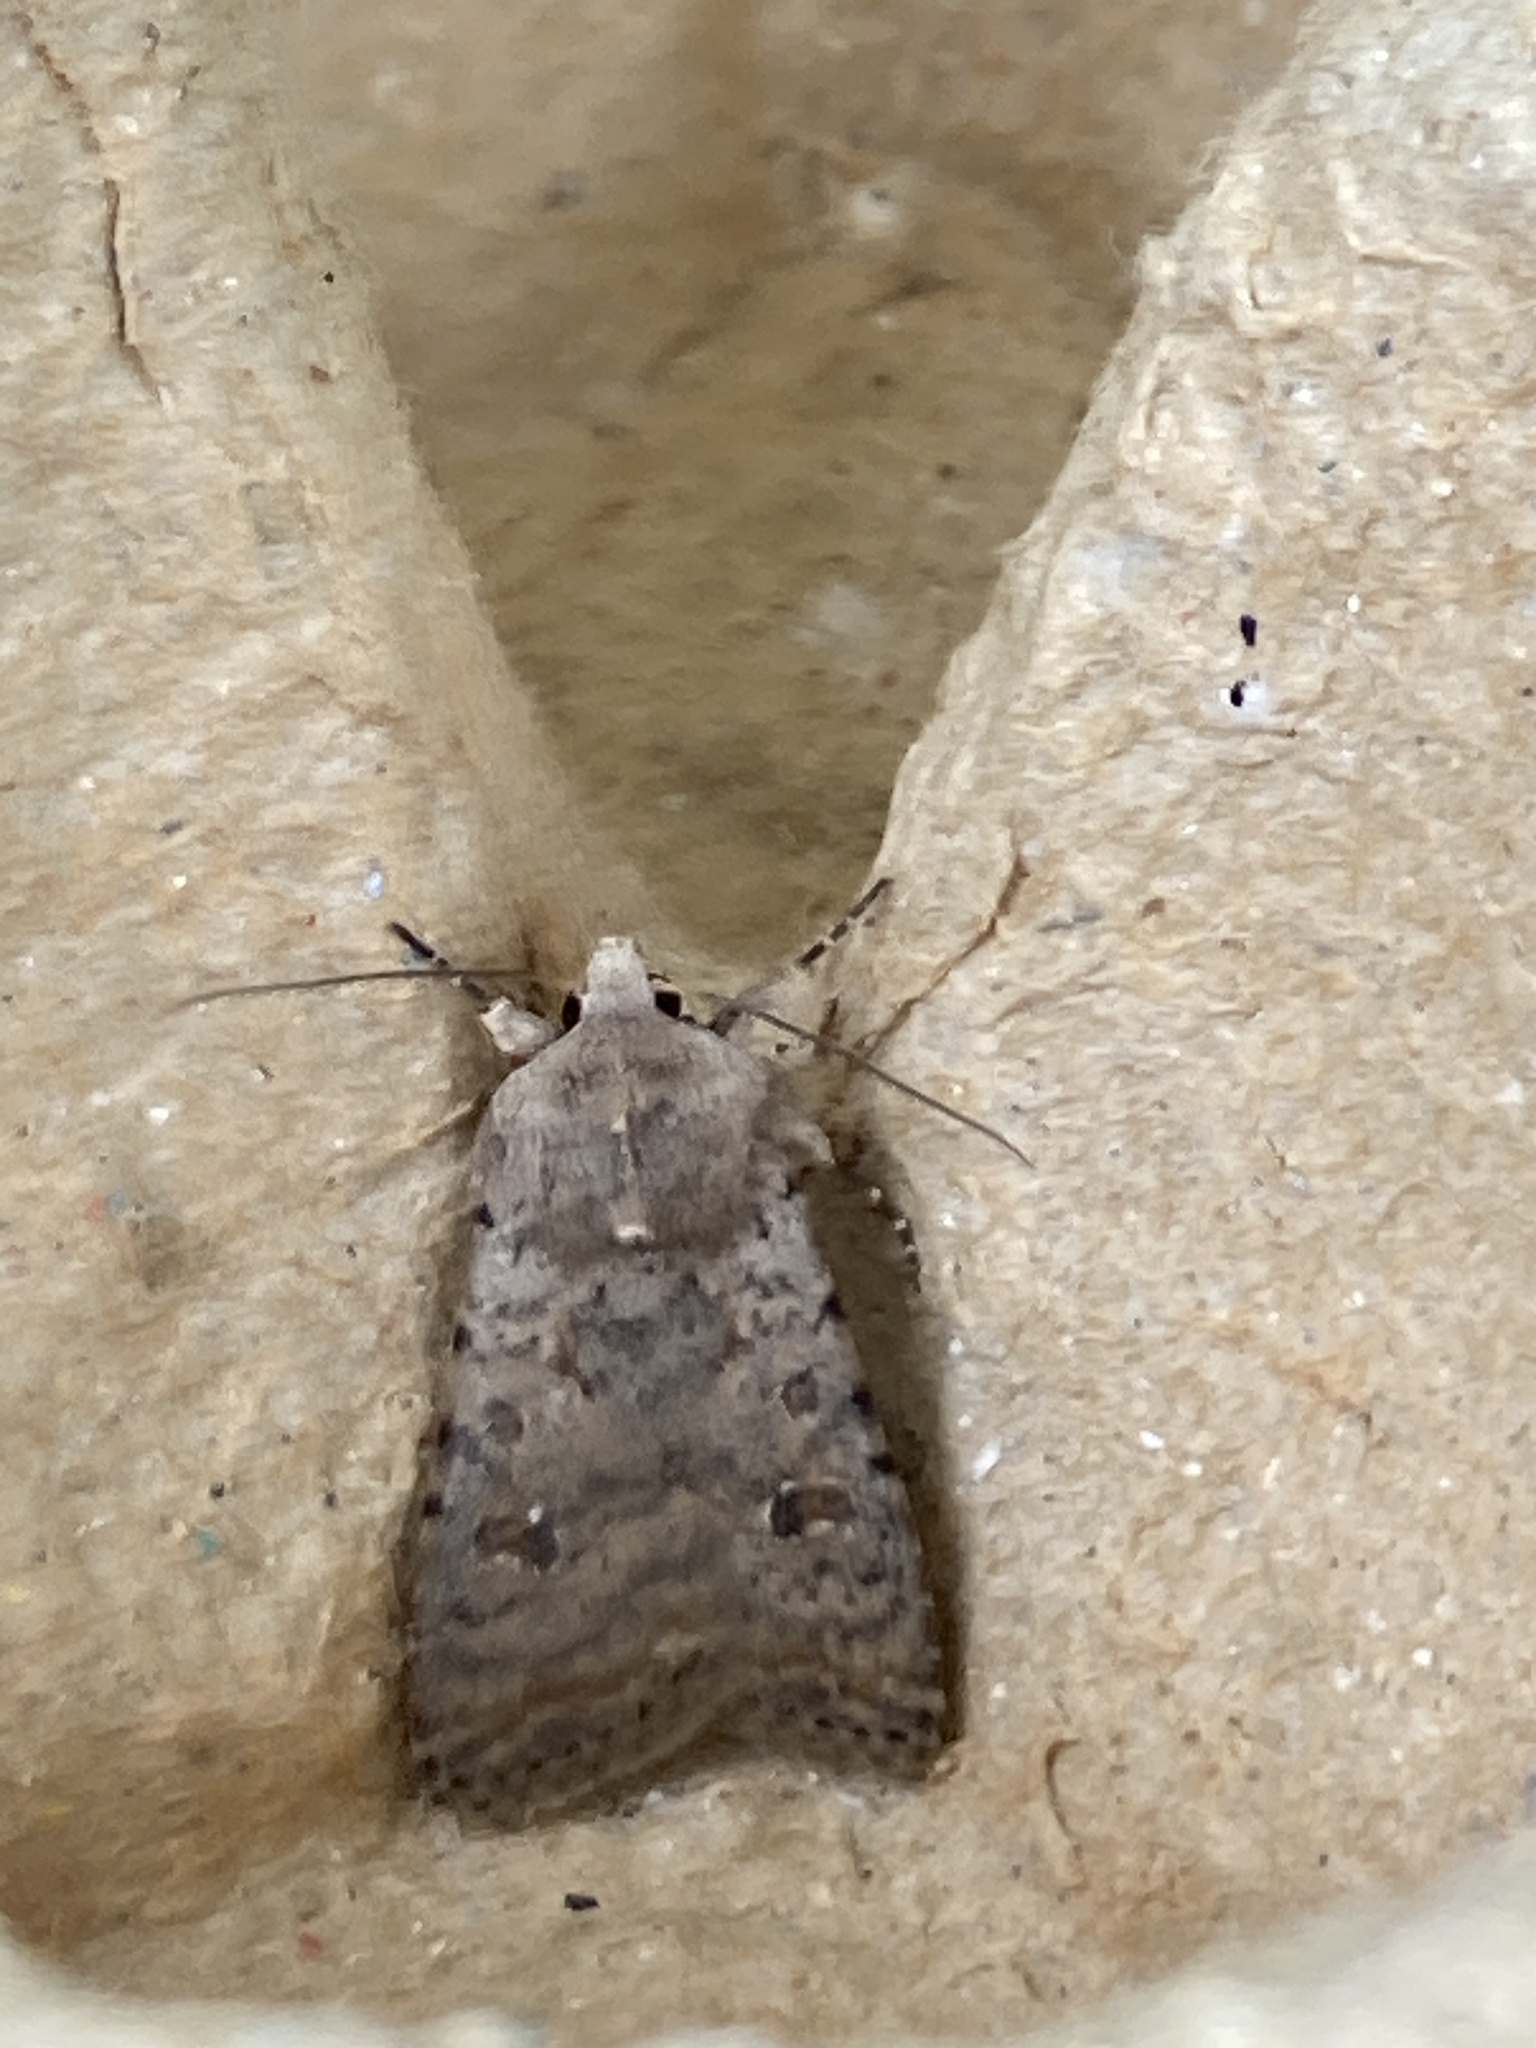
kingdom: Animalia
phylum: Arthropoda
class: Insecta
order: Lepidoptera
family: Noctuidae
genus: Caradrina
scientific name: Caradrina clavipalpis
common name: Pale mottled willow
